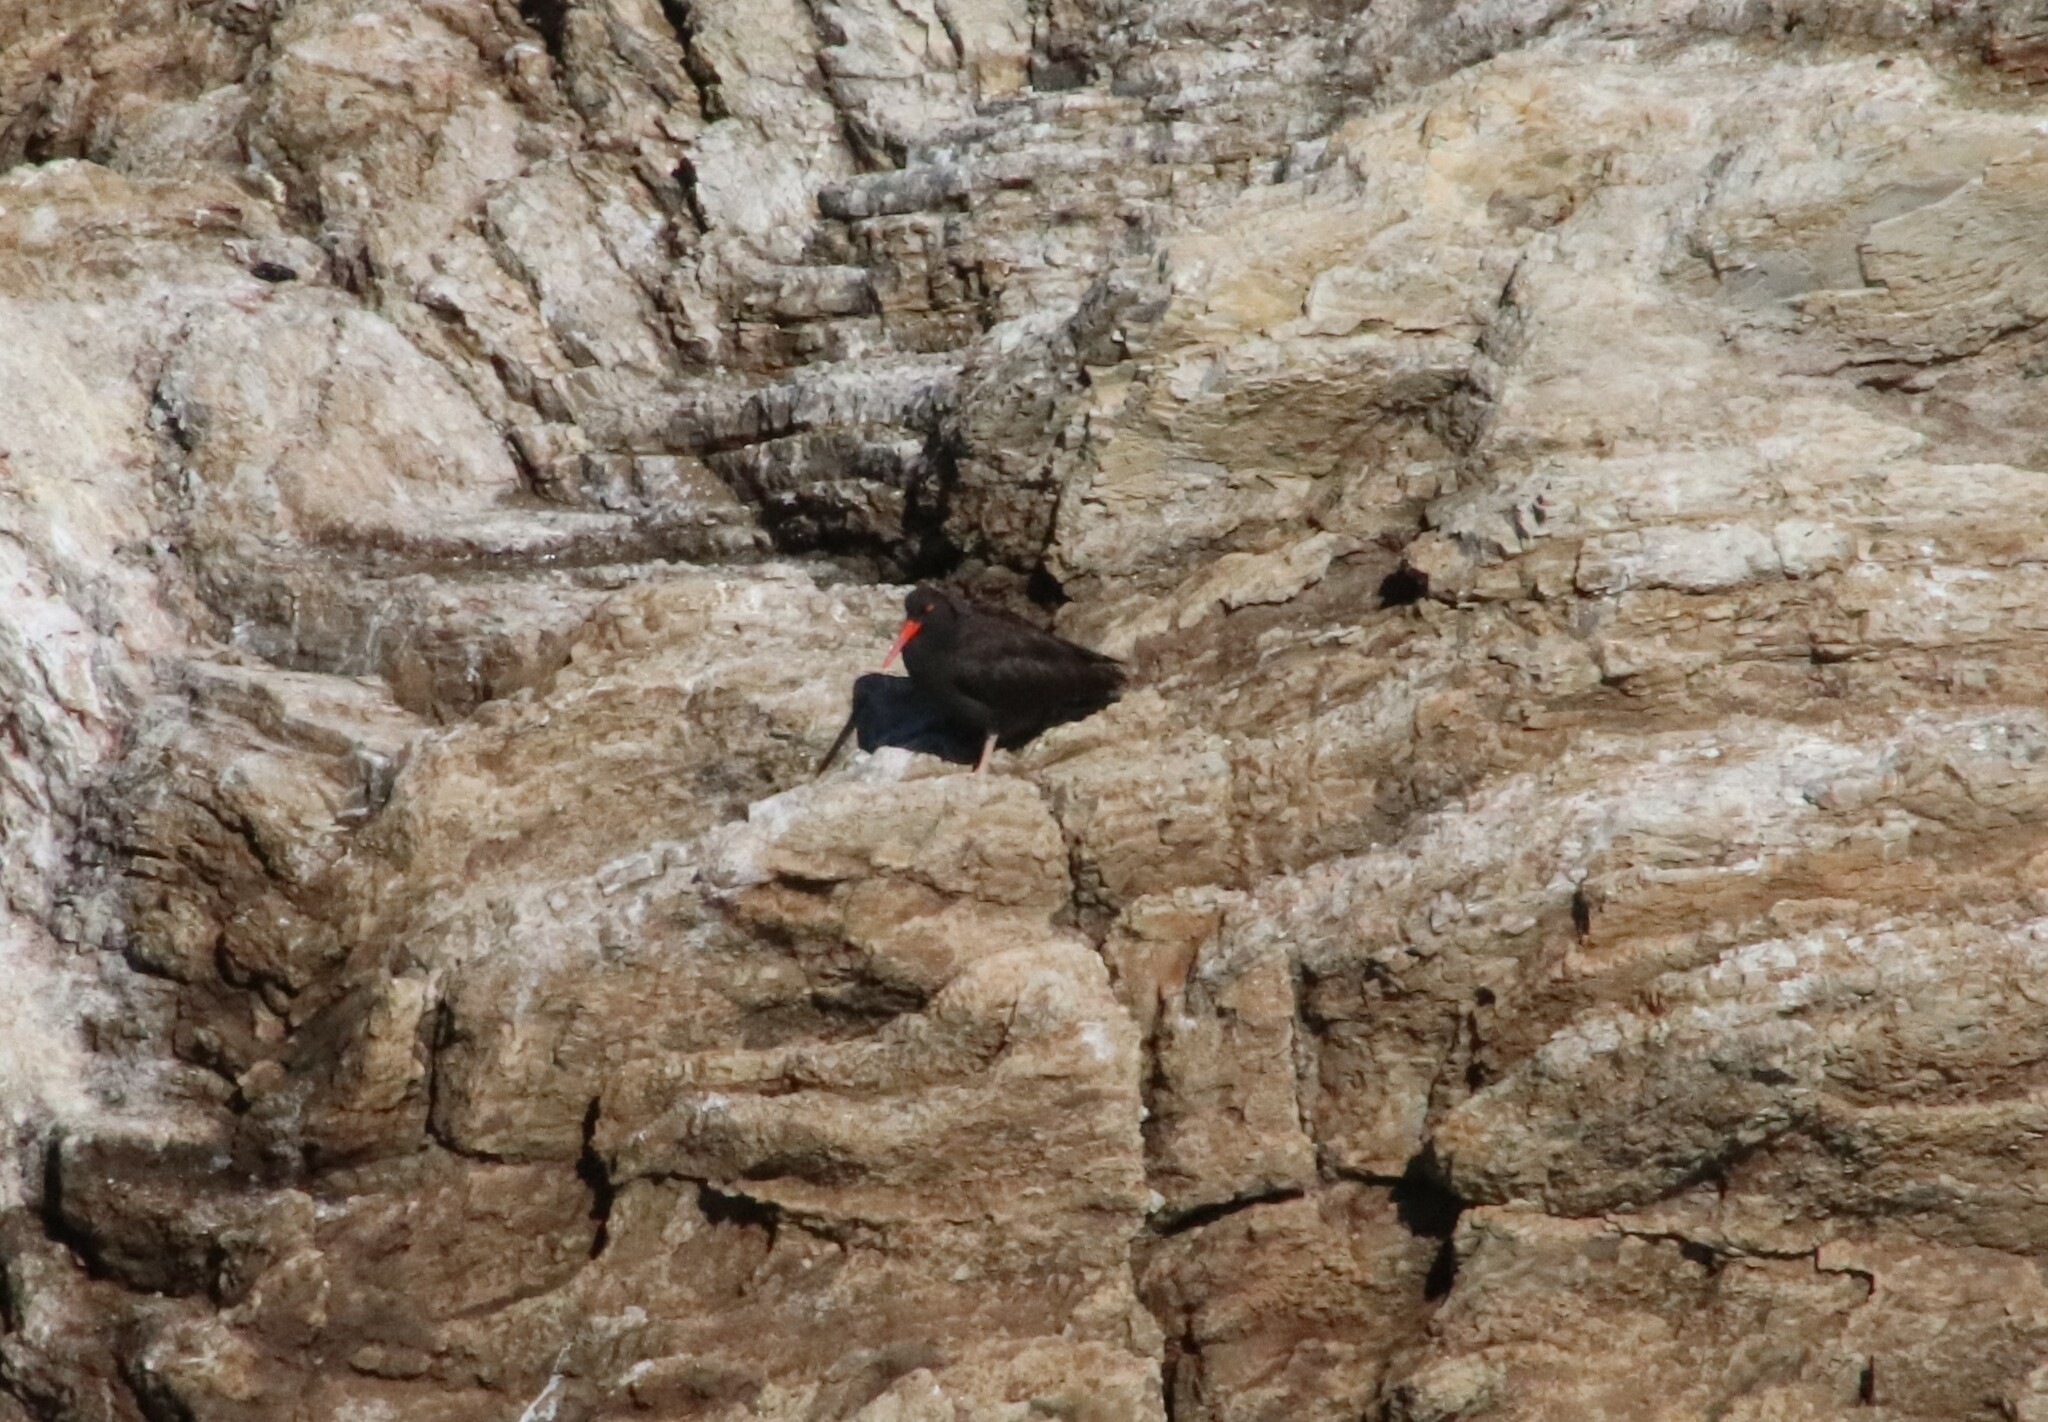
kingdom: Animalia
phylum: Chordata
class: Aves
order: Charadriiformes
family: Haematopodidae
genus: Haematopus
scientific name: Haematopus bachmani
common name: Black oystercatcher
